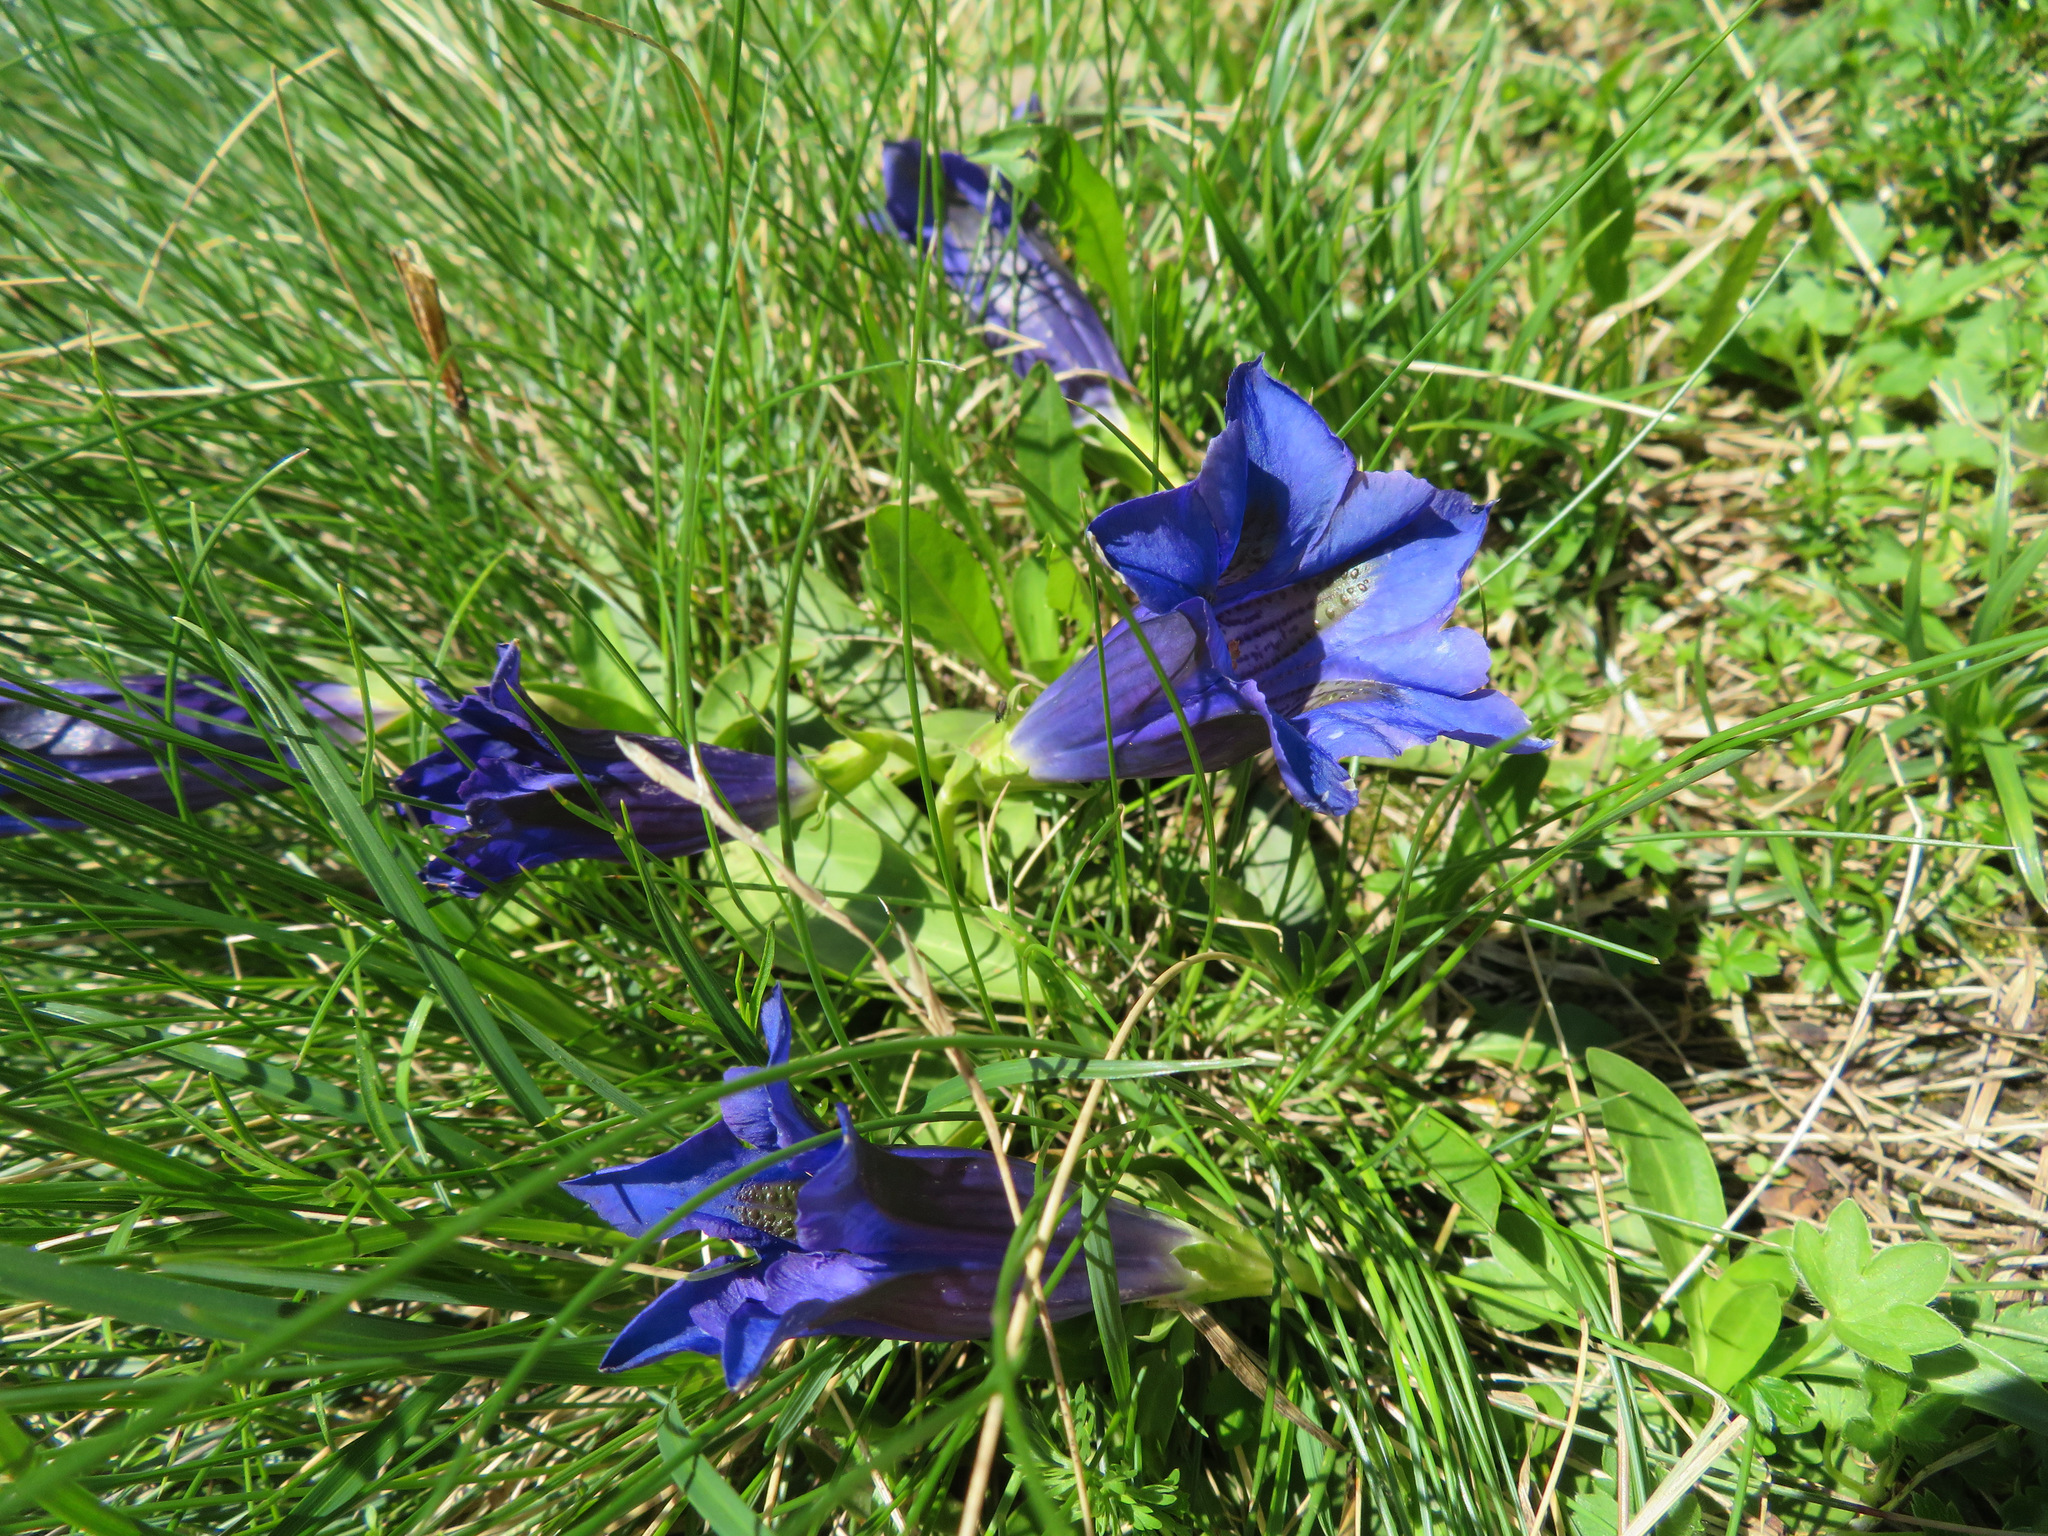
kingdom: Plantae
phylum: Tracheophyta
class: Magnoliopsida
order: Gentianales
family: Gentianaceae
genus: Gentiana
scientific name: Gentiana acaulis
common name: Trumpet gentian
